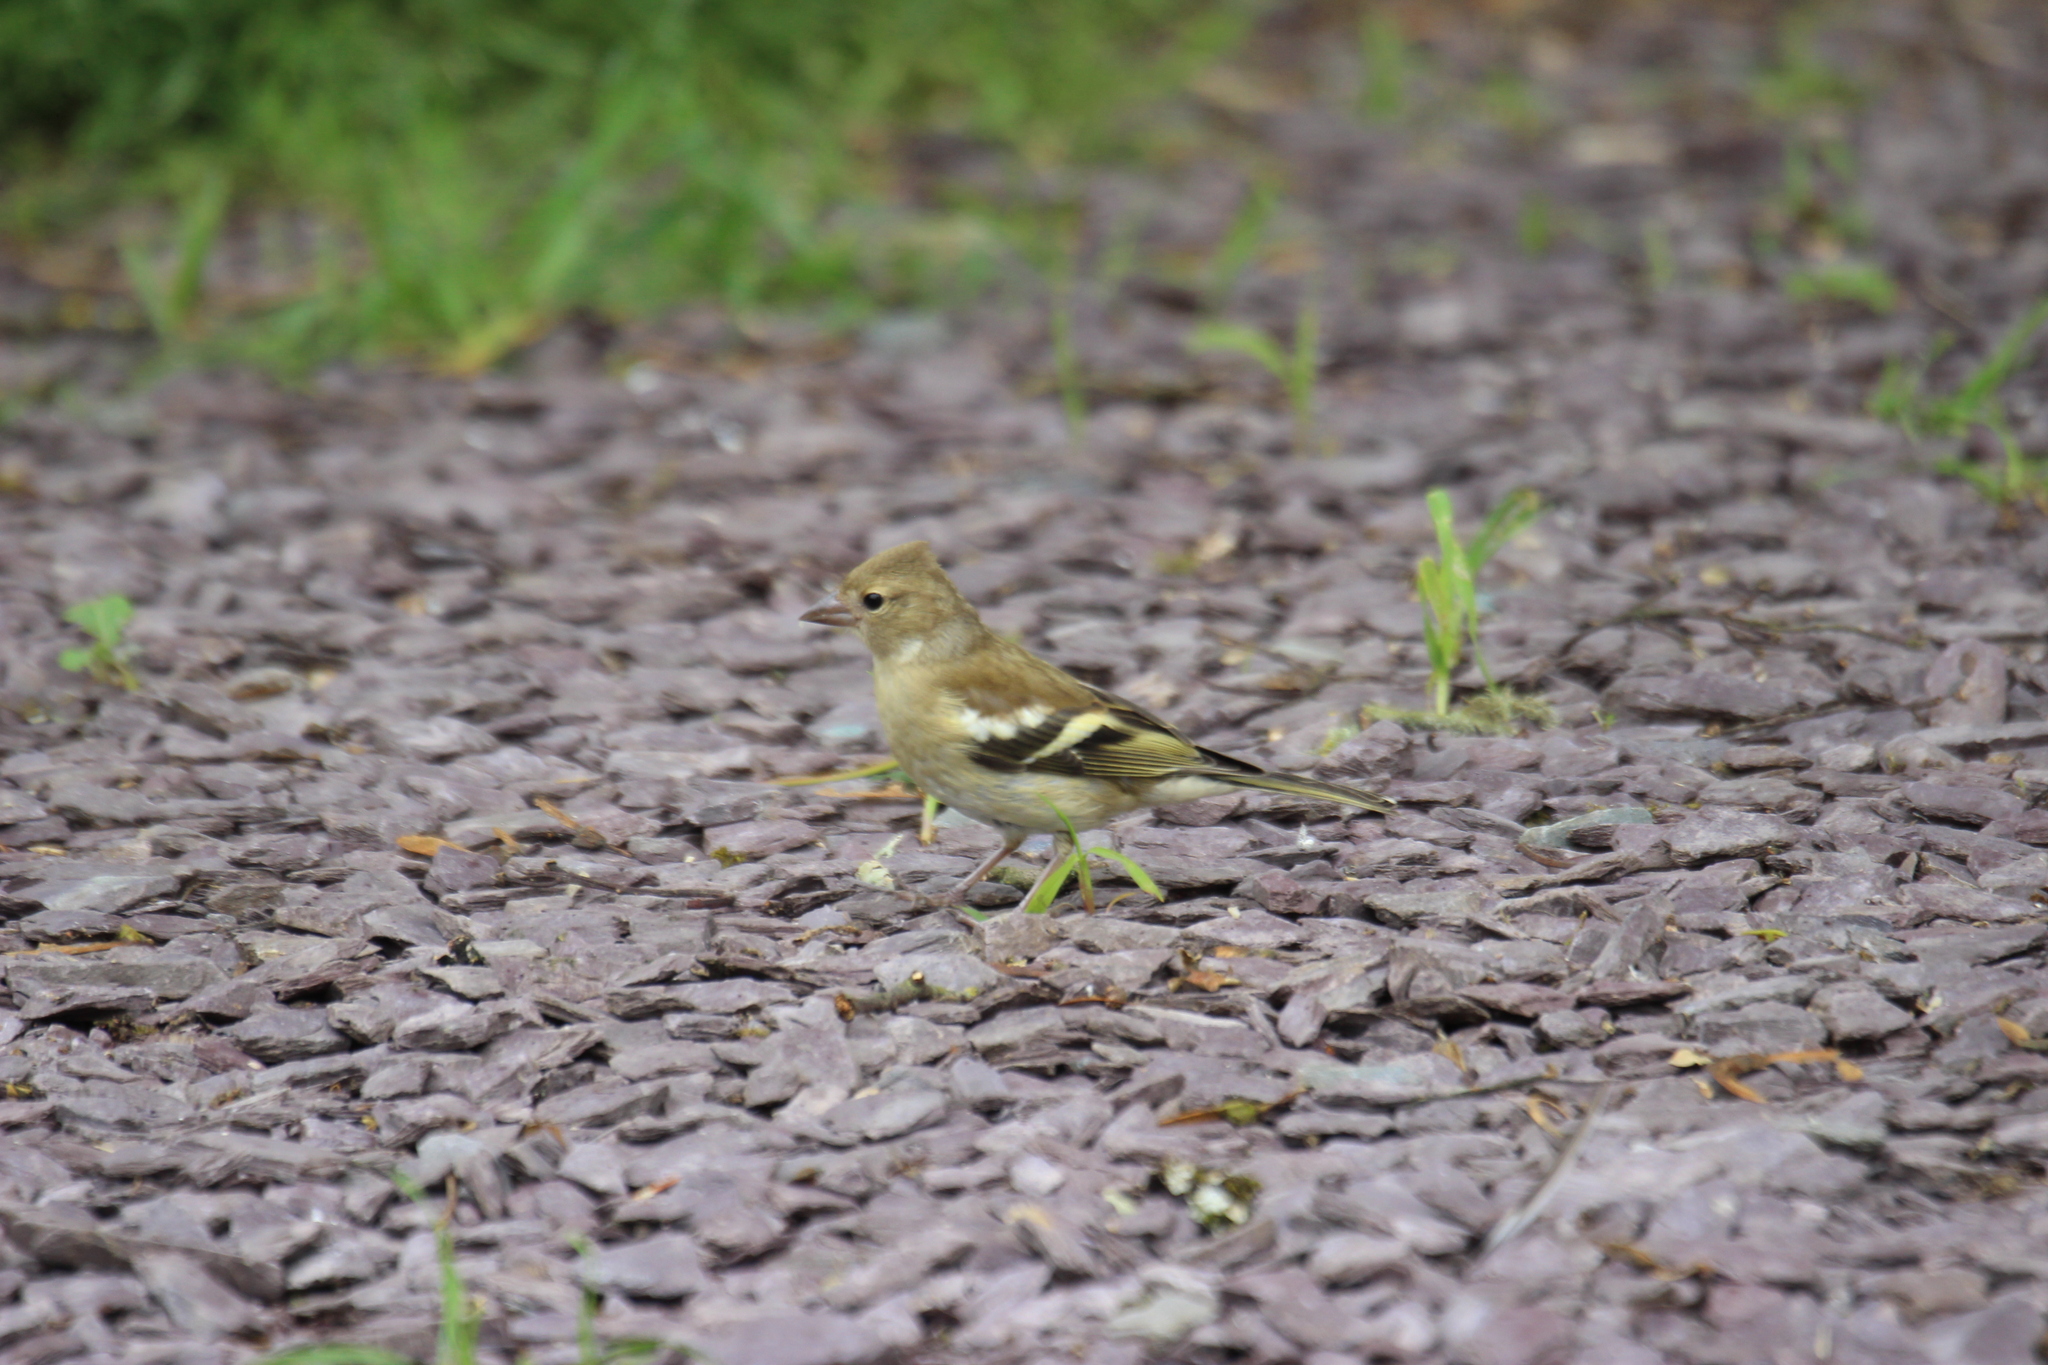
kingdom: Animalia
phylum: Chordata
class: Aves
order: Passeriformes
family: Fringillidae
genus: Fringilla
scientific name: Fringilla coelebs
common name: Common chaffinch
